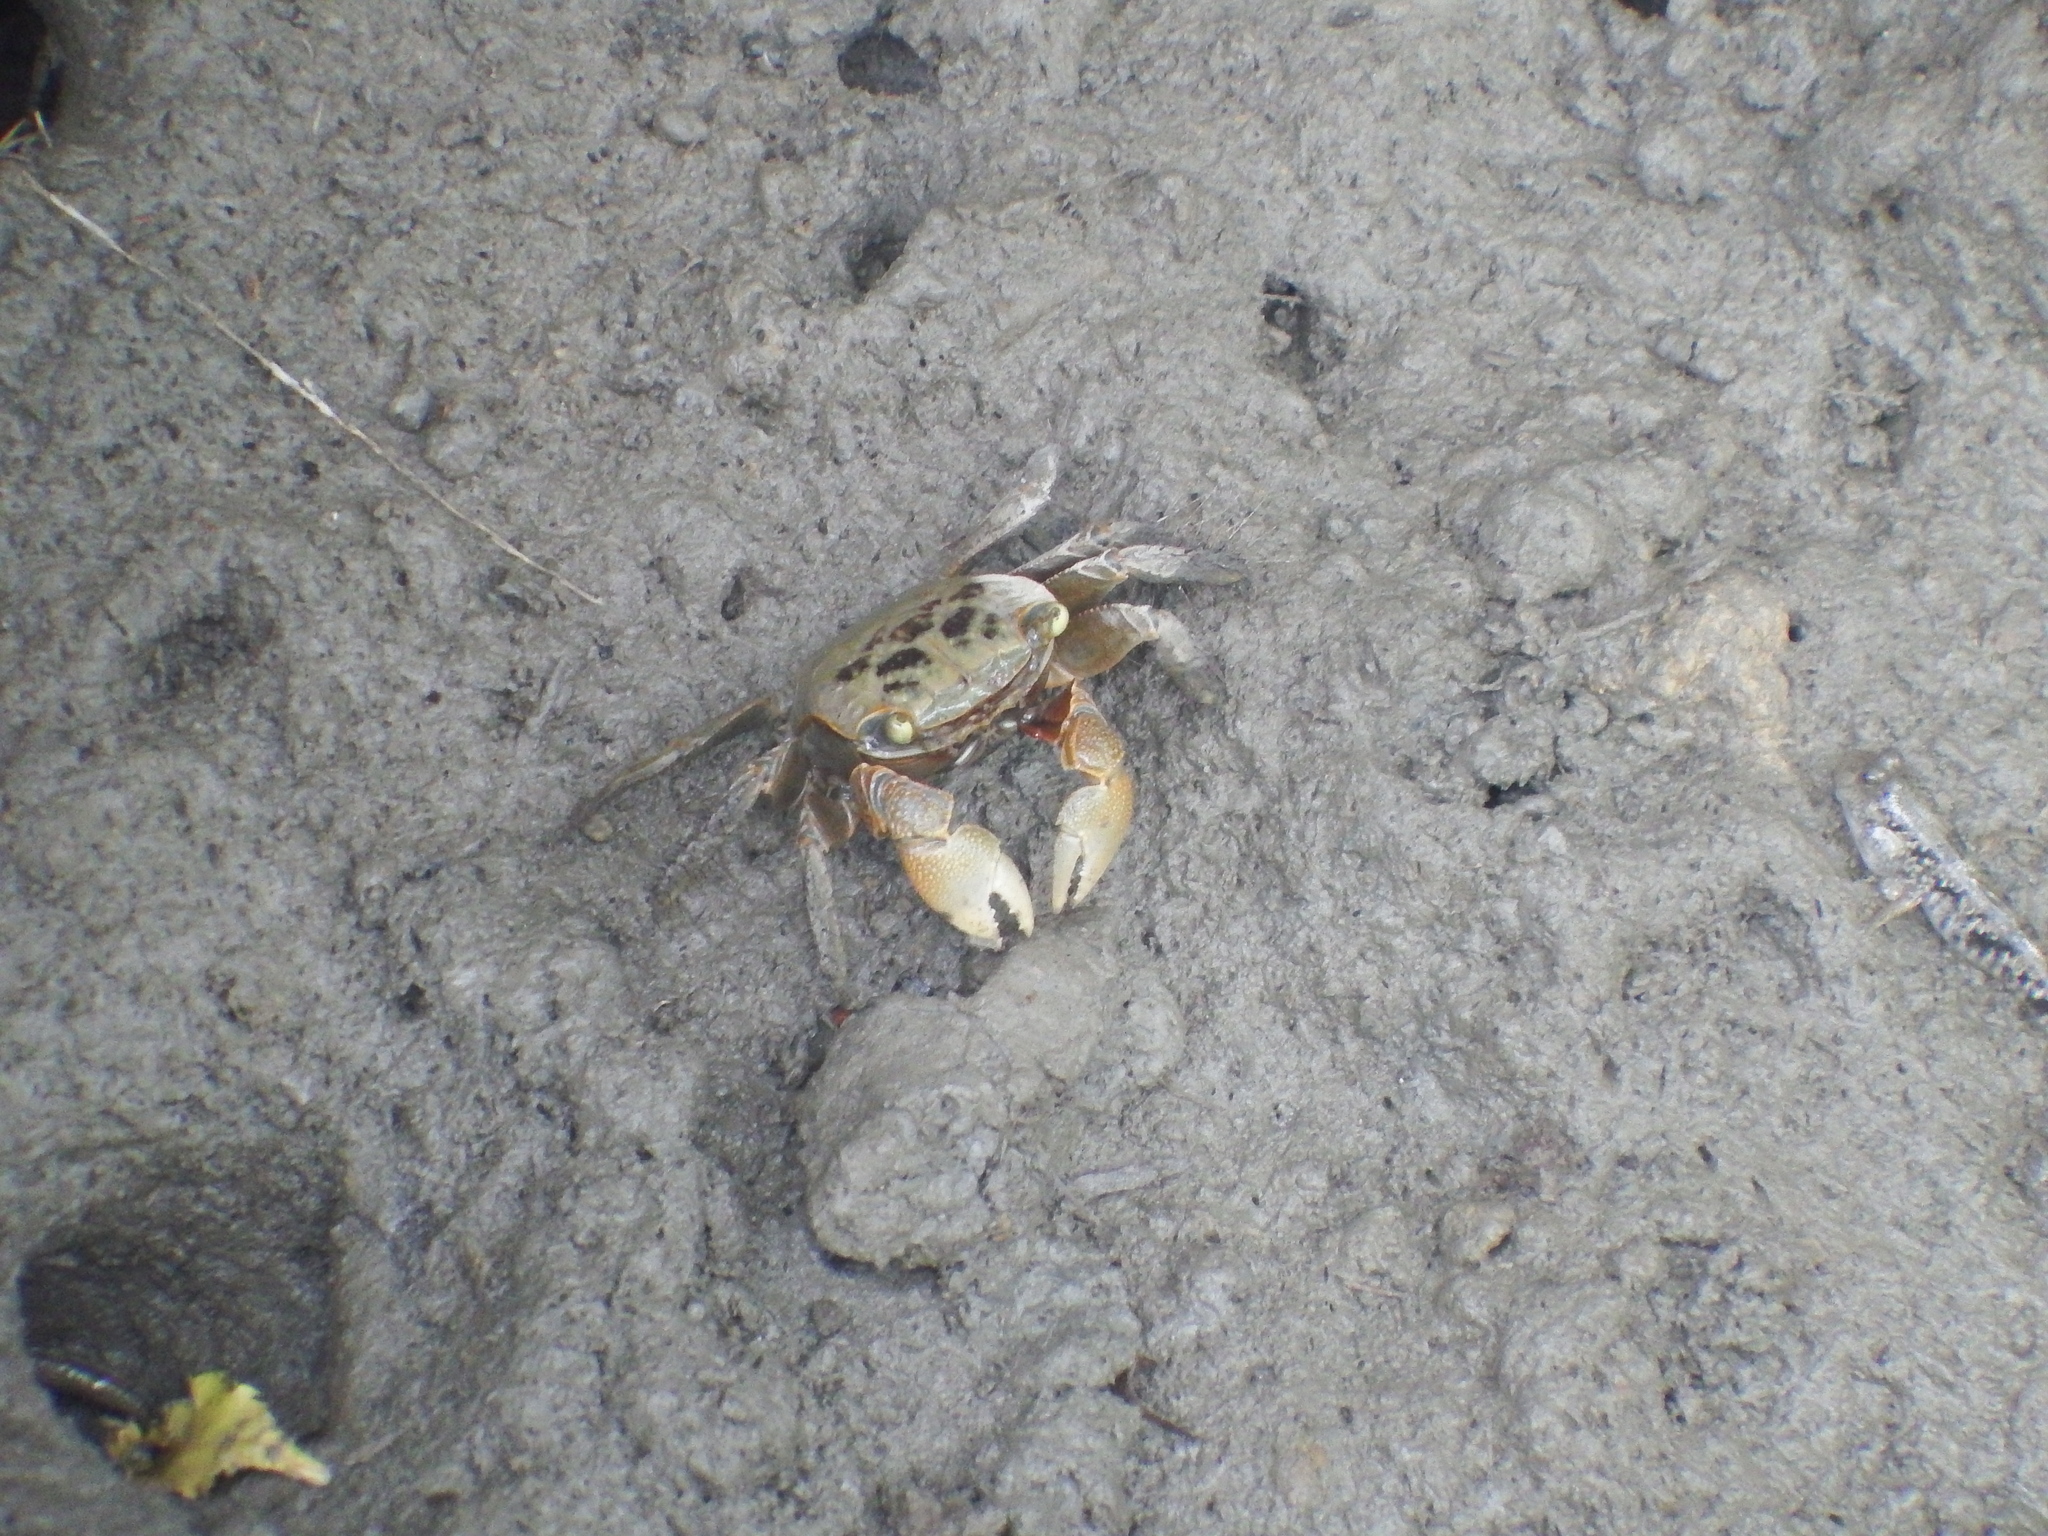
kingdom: Animalia
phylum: Arthropoda
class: Malacostraca
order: Decapoda
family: Sesarmidae
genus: Orisarma
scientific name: Orisarma dehaani
